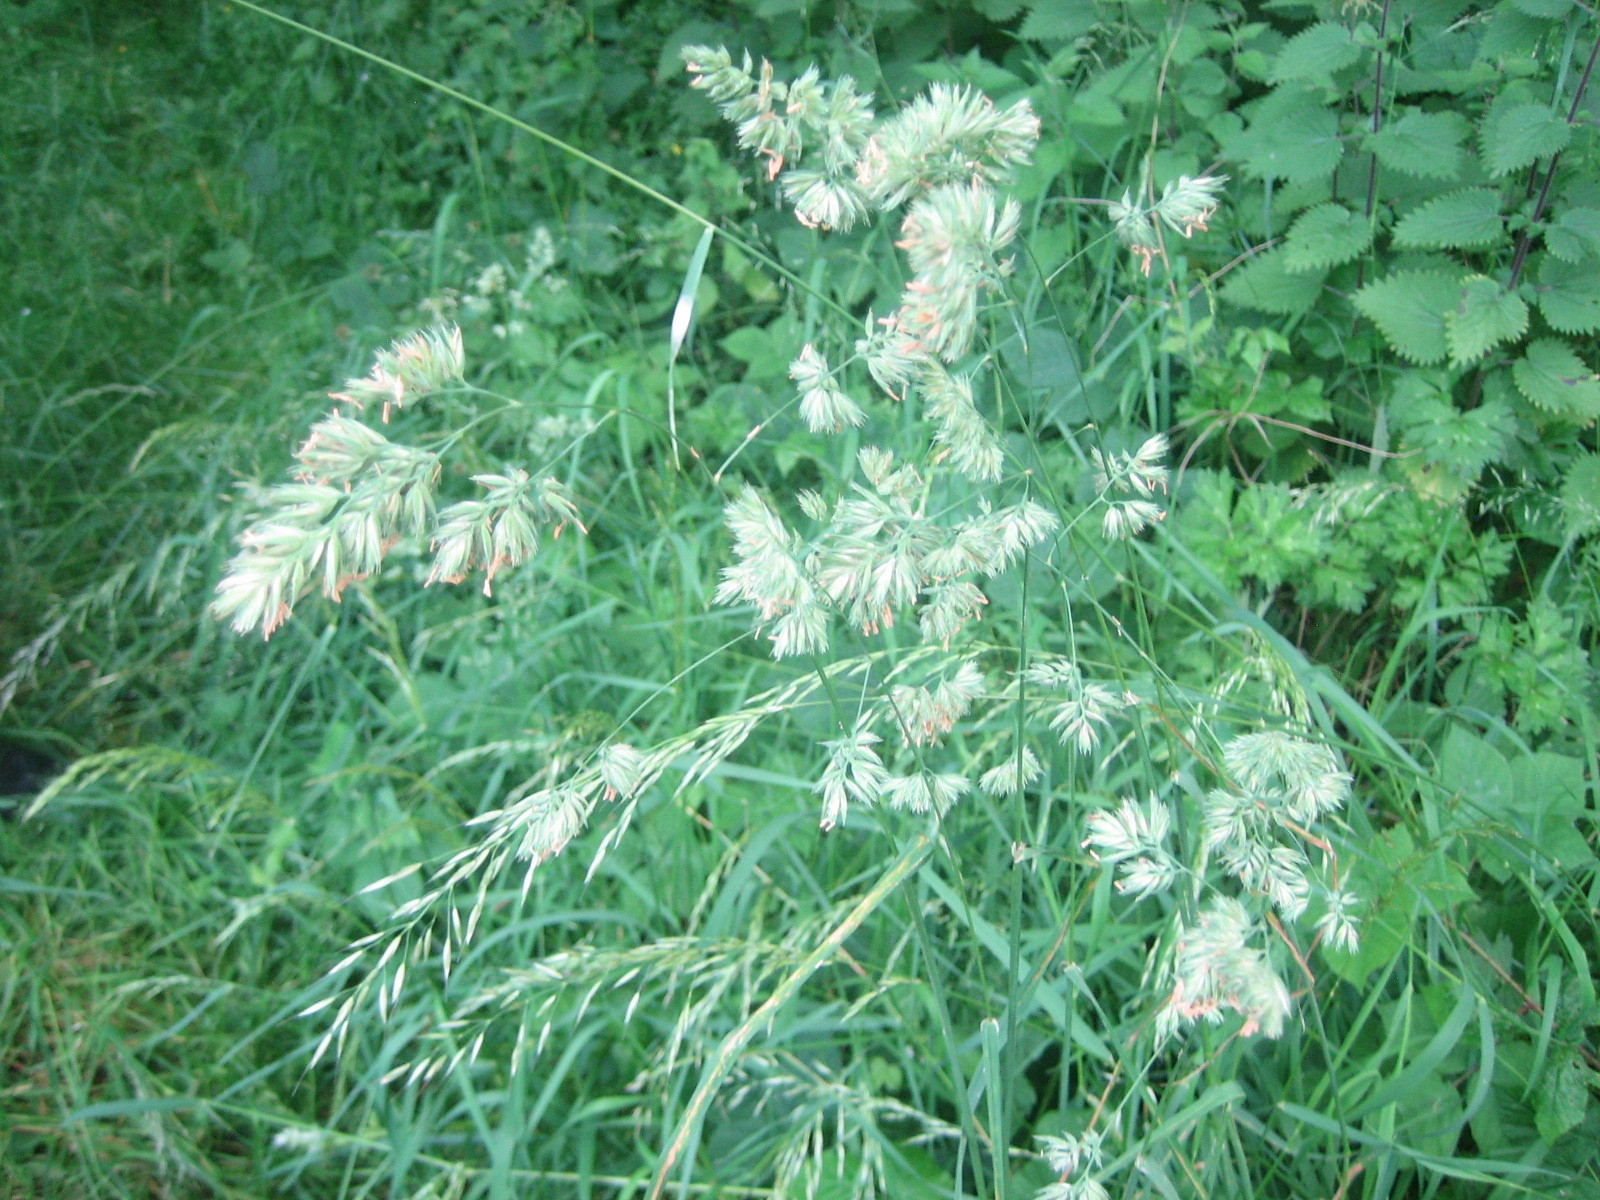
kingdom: Plantae
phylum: Tracheophyta
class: Liliopsida
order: Poales
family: Poaceae
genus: Dactylis
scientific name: Dactylis glomerata
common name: Orchardgrass
